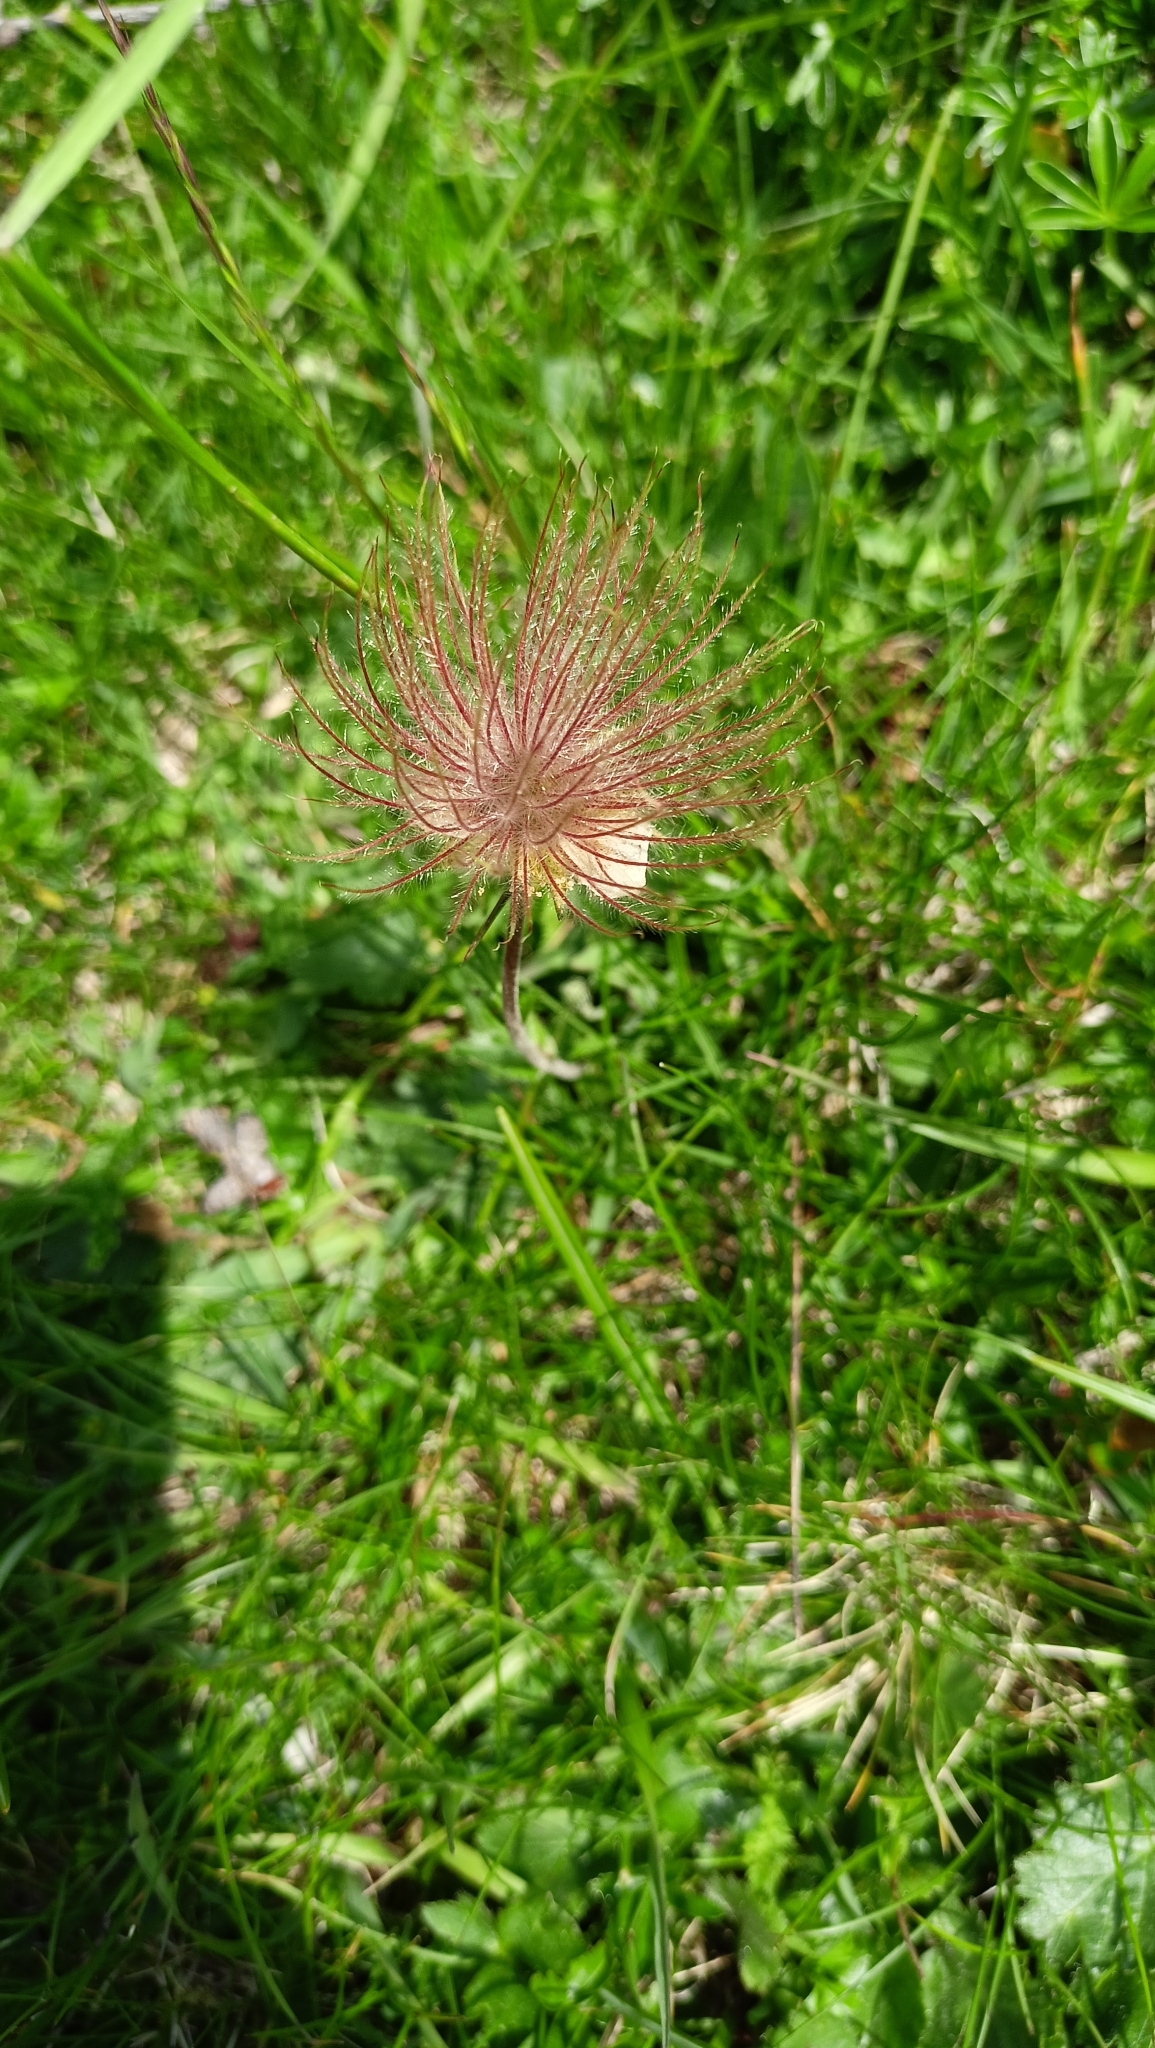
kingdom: Plantae
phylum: Tracheophyta
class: Magnoliopsida
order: Rosales
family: Rosaceae
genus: Geum
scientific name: Geum montanum
